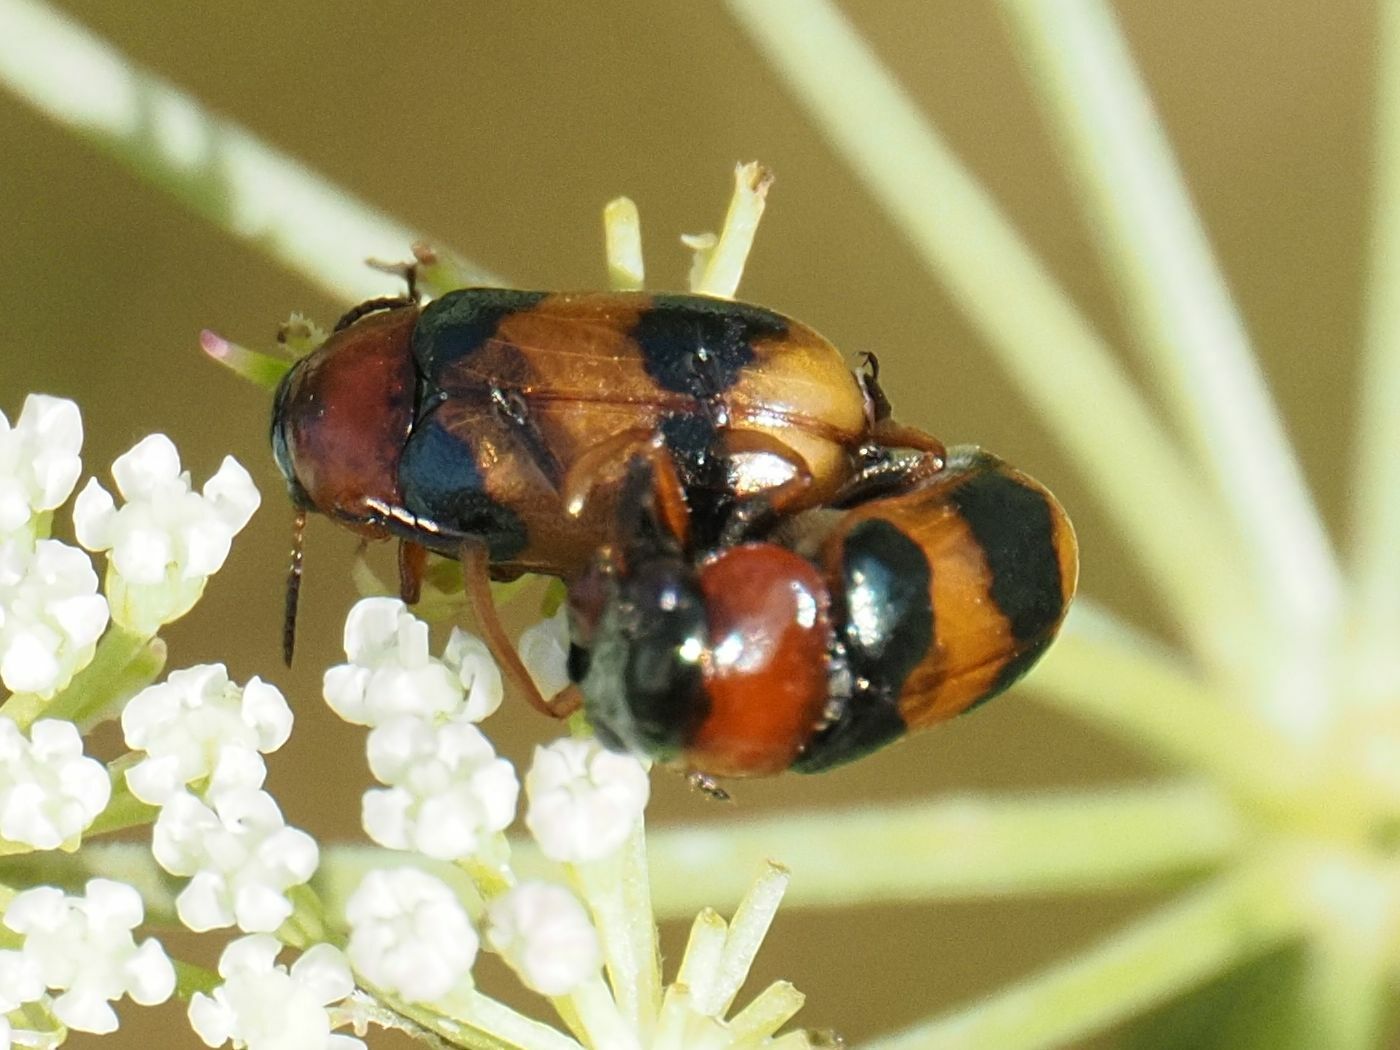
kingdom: Animalia
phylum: Arthropoda
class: Insecta
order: Coleoptera
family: Chrysomelidae
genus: Coptocephala
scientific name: Coptocephala unifasciata
